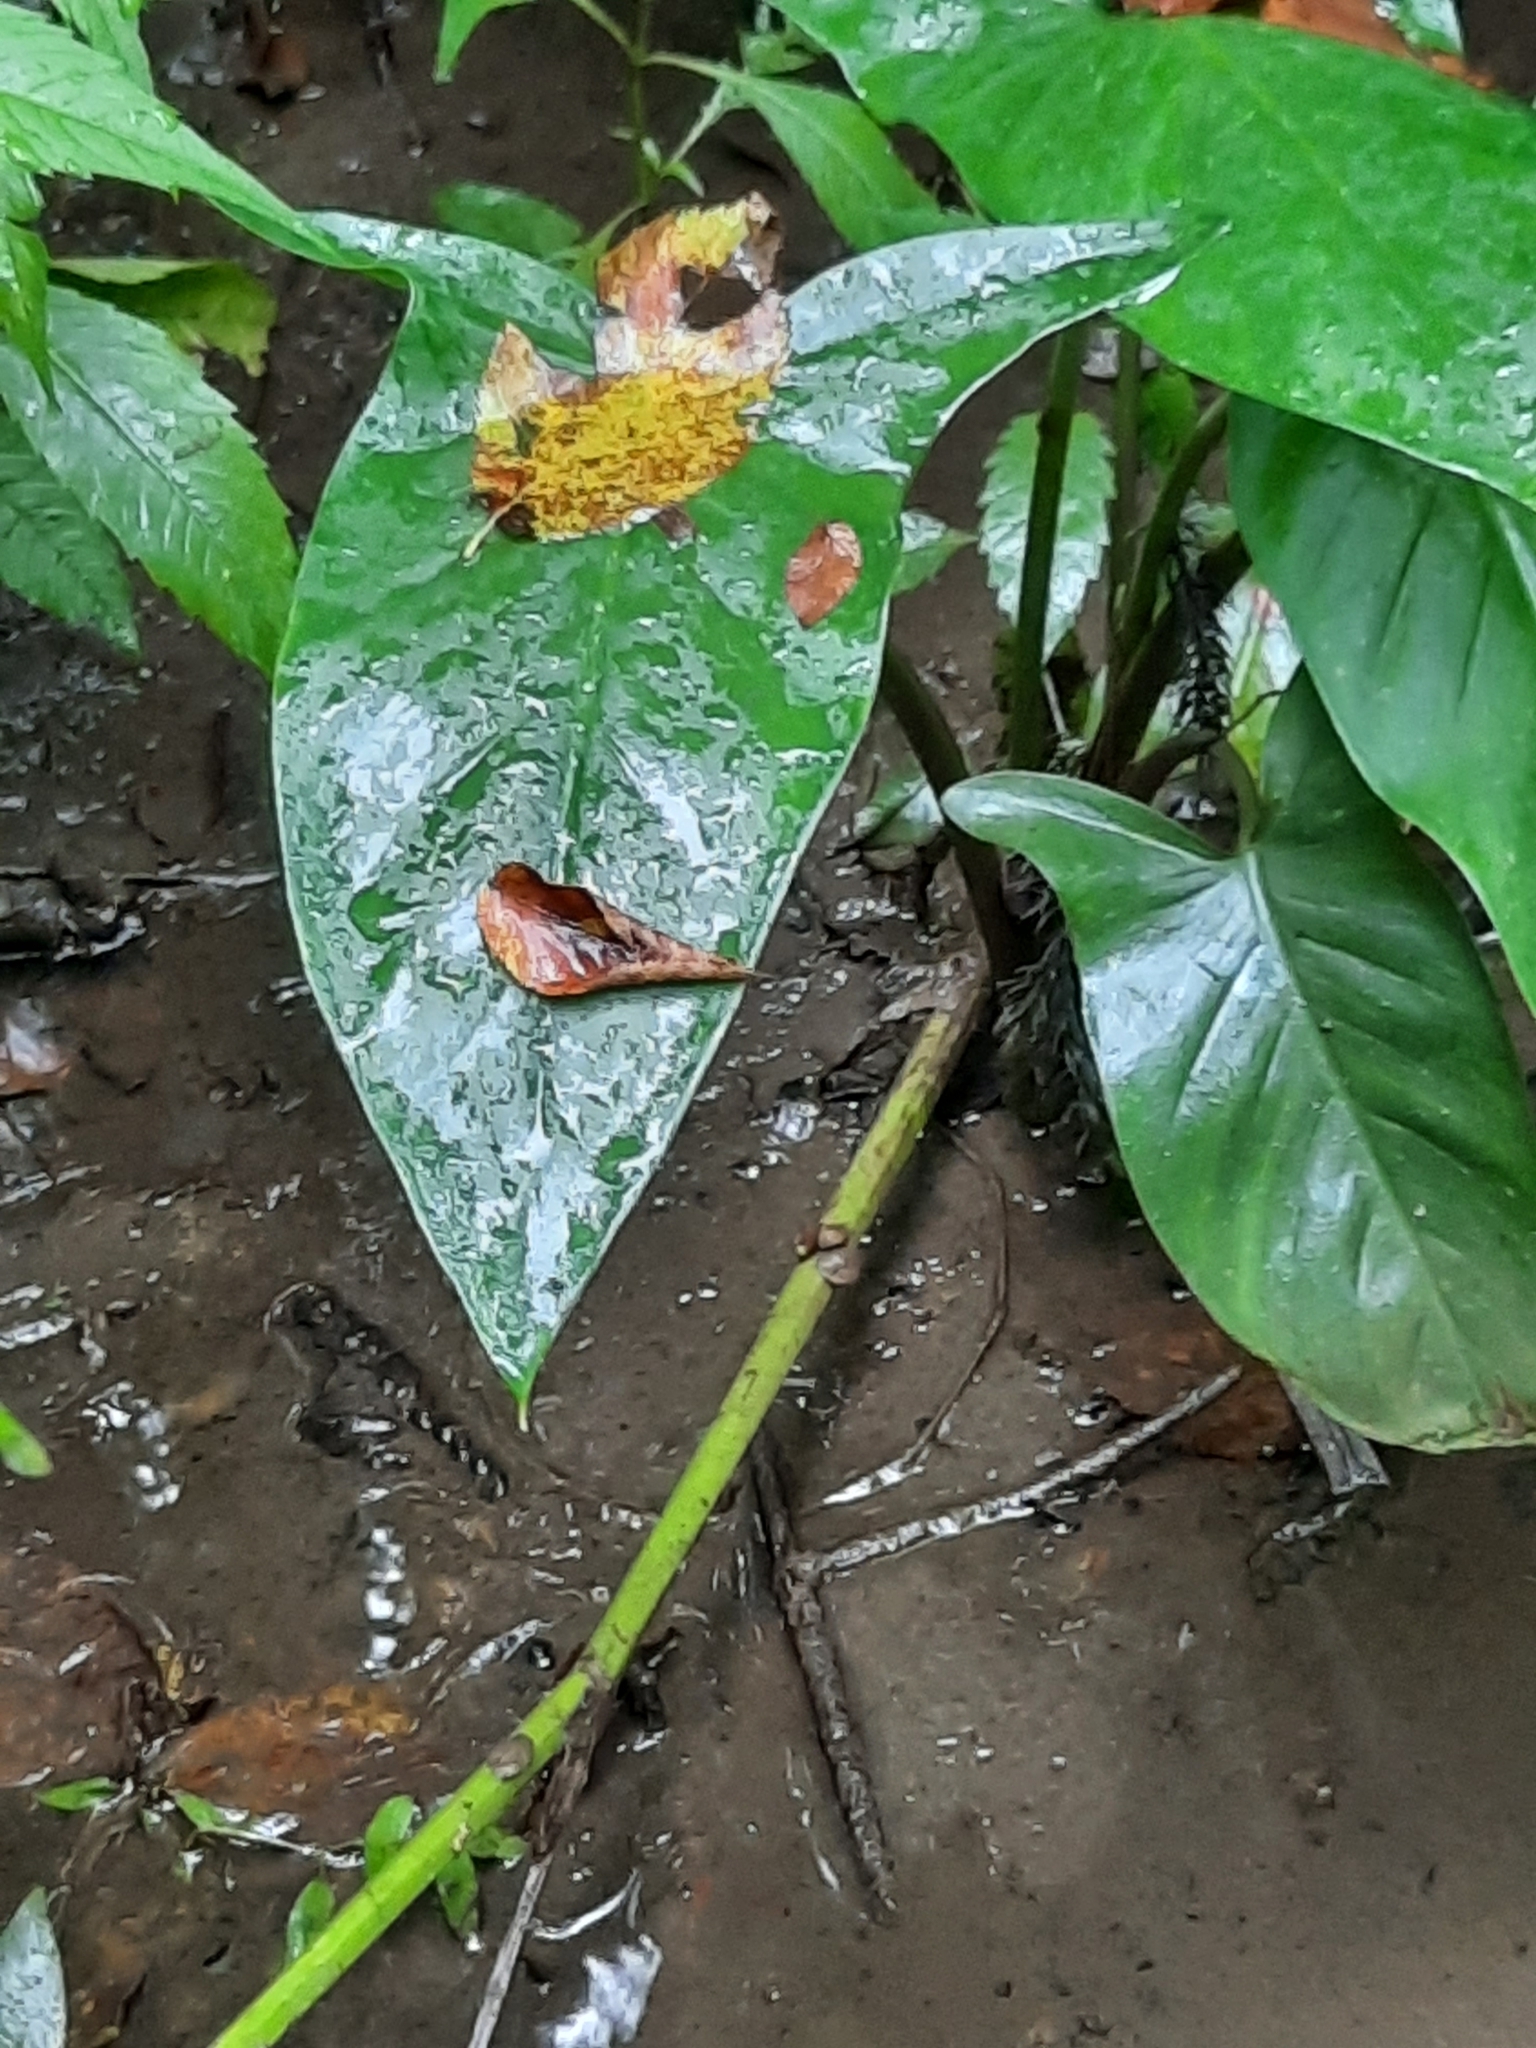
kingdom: Plantae
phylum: Tracheophyta
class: Liliopsida
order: Alismatales
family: Araceae
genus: Peltandra
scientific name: Peltandra virginica
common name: Arrow arum
